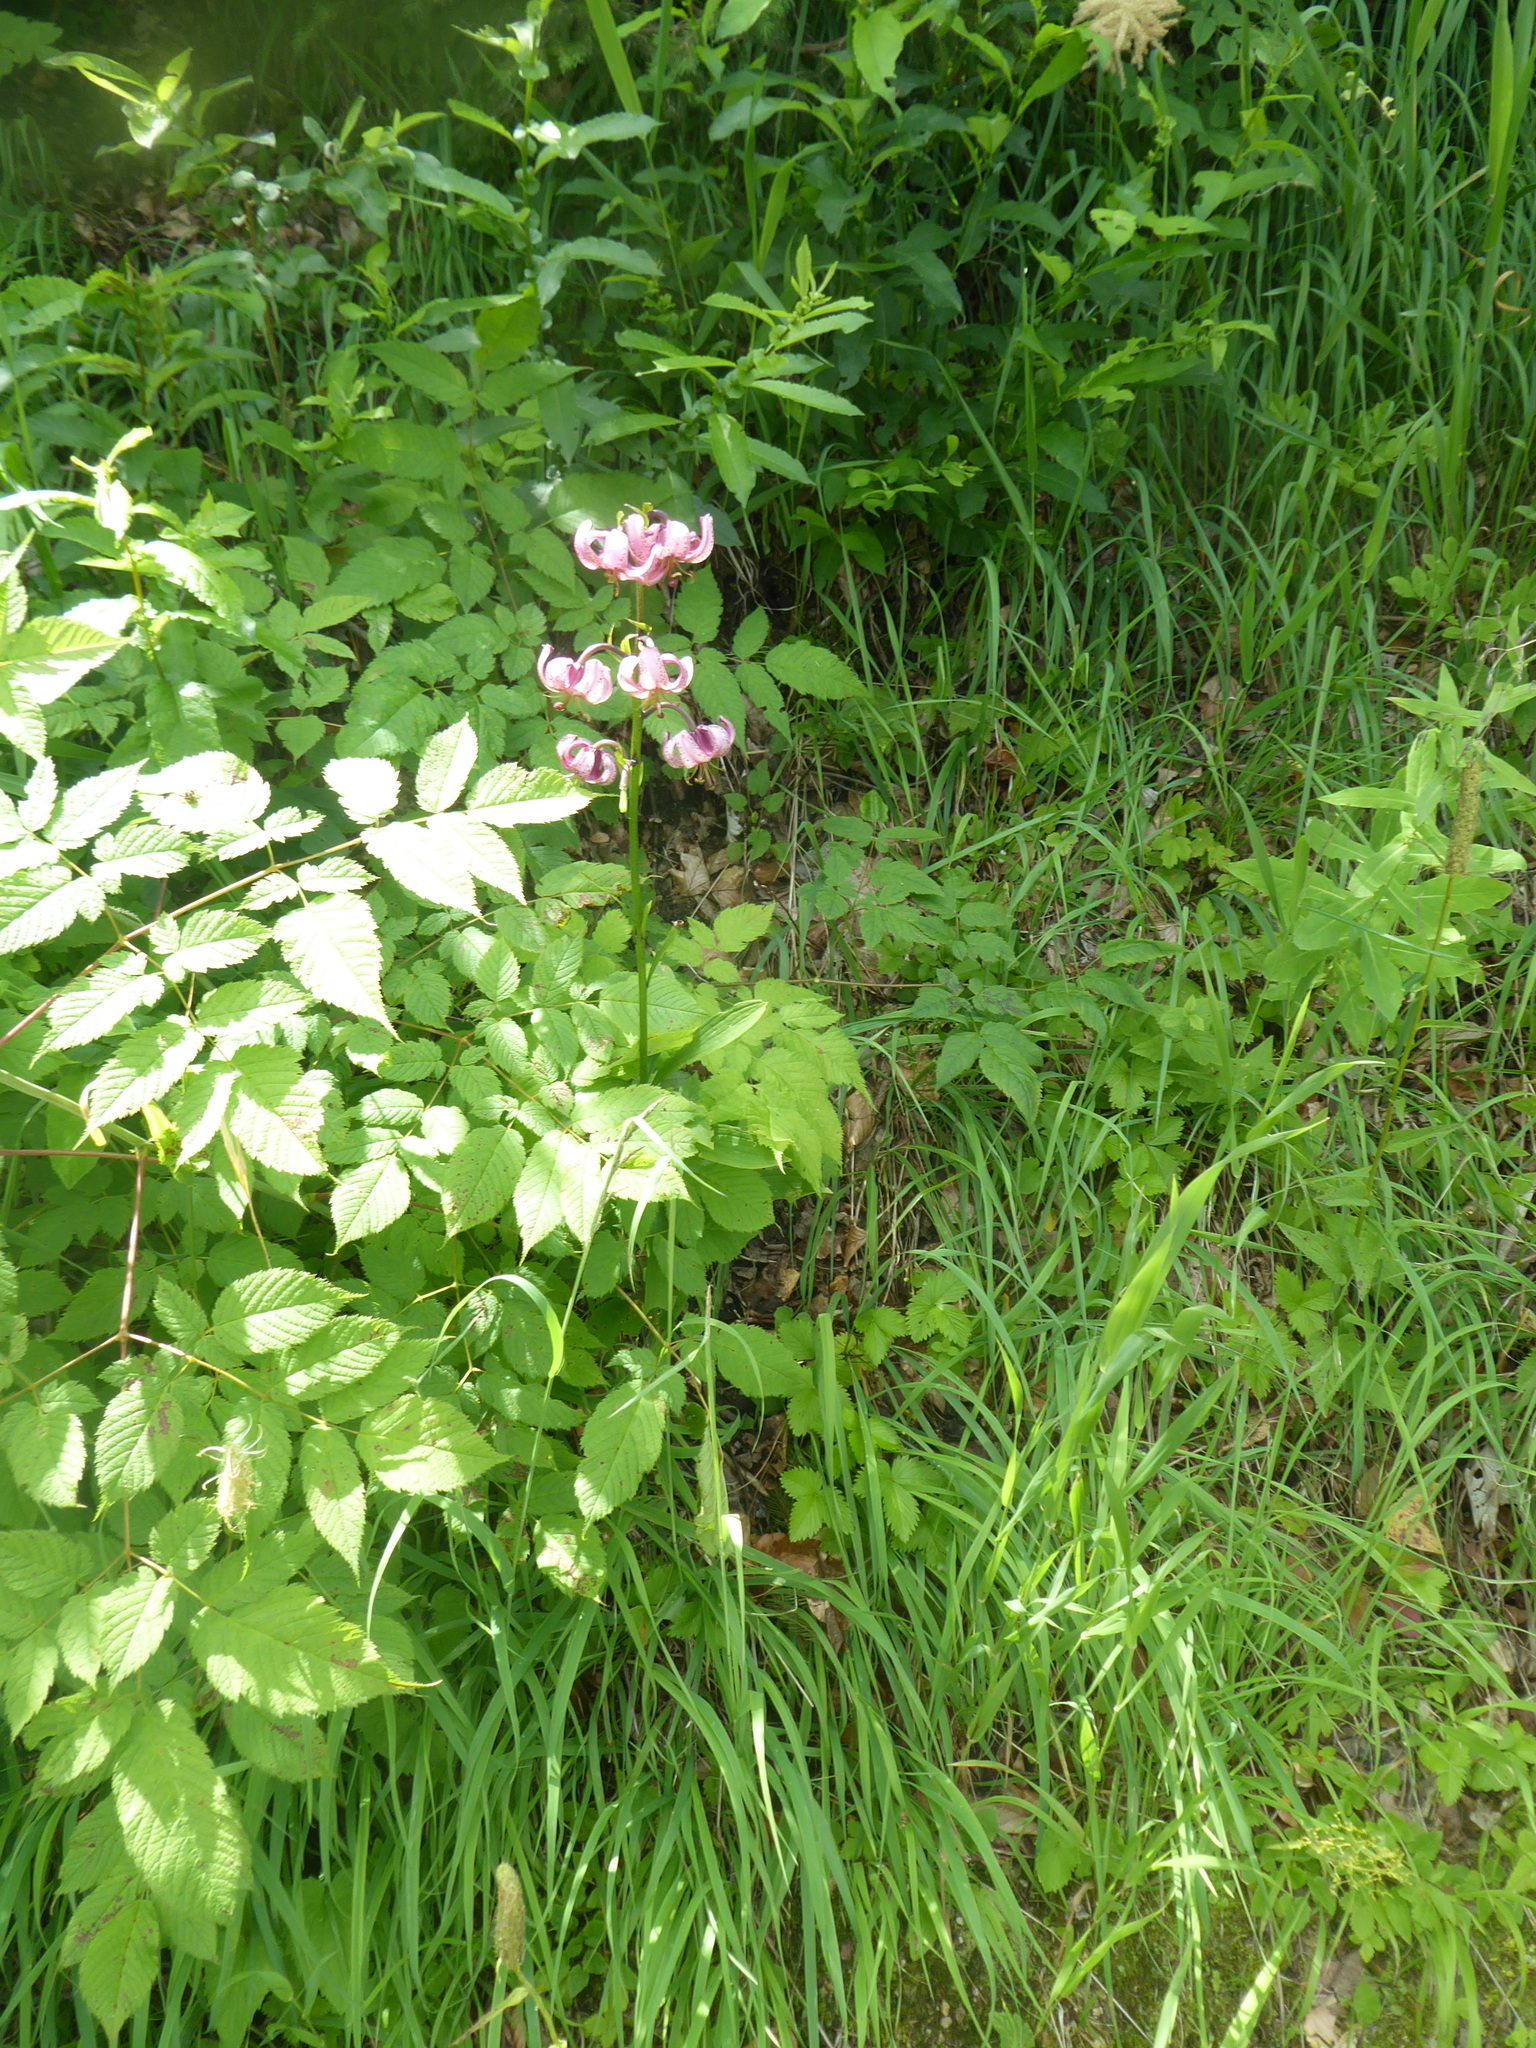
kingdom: Plantae
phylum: Tracheophyta
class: Liliopsida
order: Liliales
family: Liliaceae
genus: Lilium
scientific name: Lilium martagon
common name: Martagon lily
